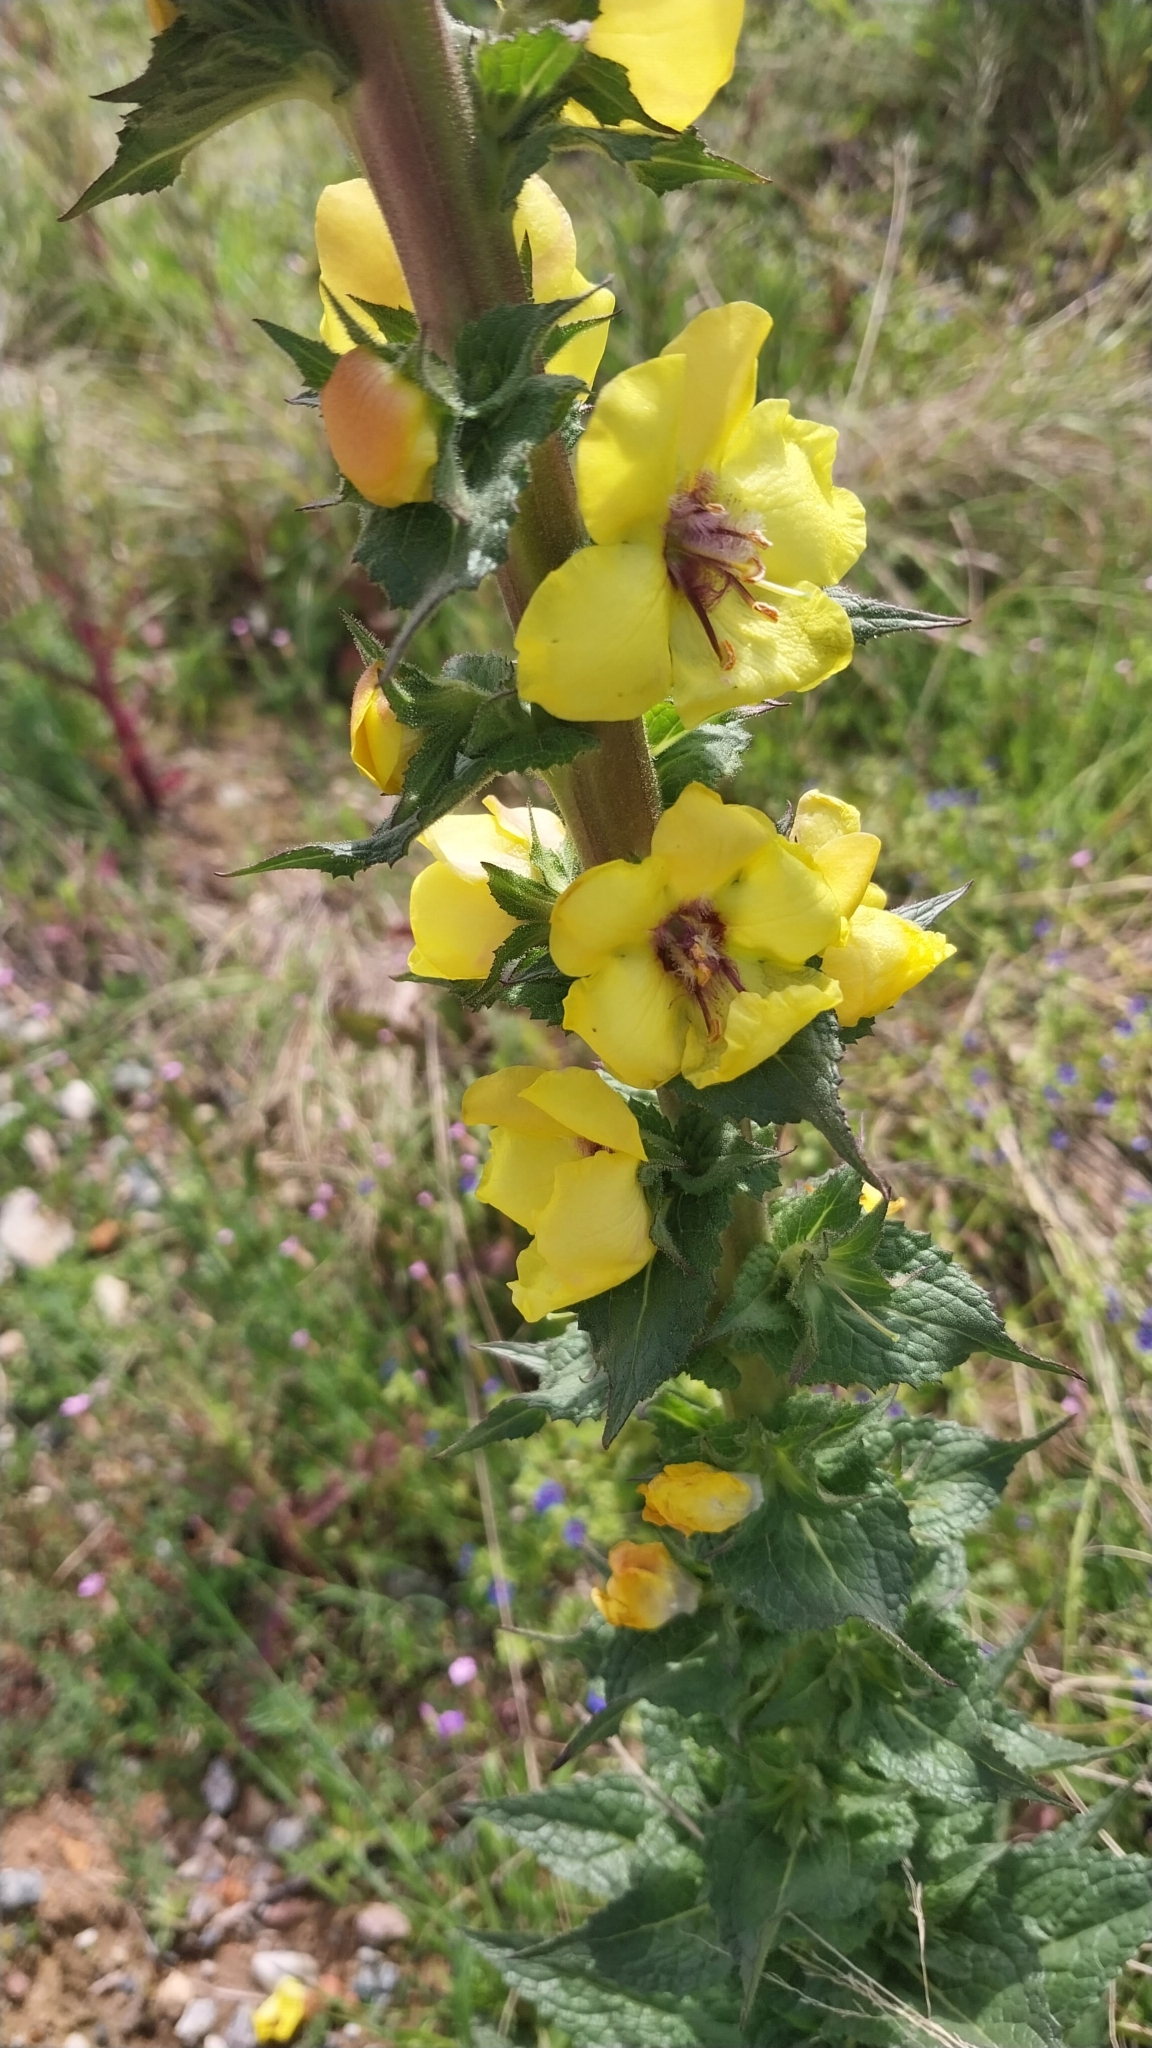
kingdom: Plantae
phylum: Tracheophyta
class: Magnoliopsida
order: Lamiales
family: Scrophulariaceae
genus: Verbascum
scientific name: Verbascum virgatum
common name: Twiggy mullein
